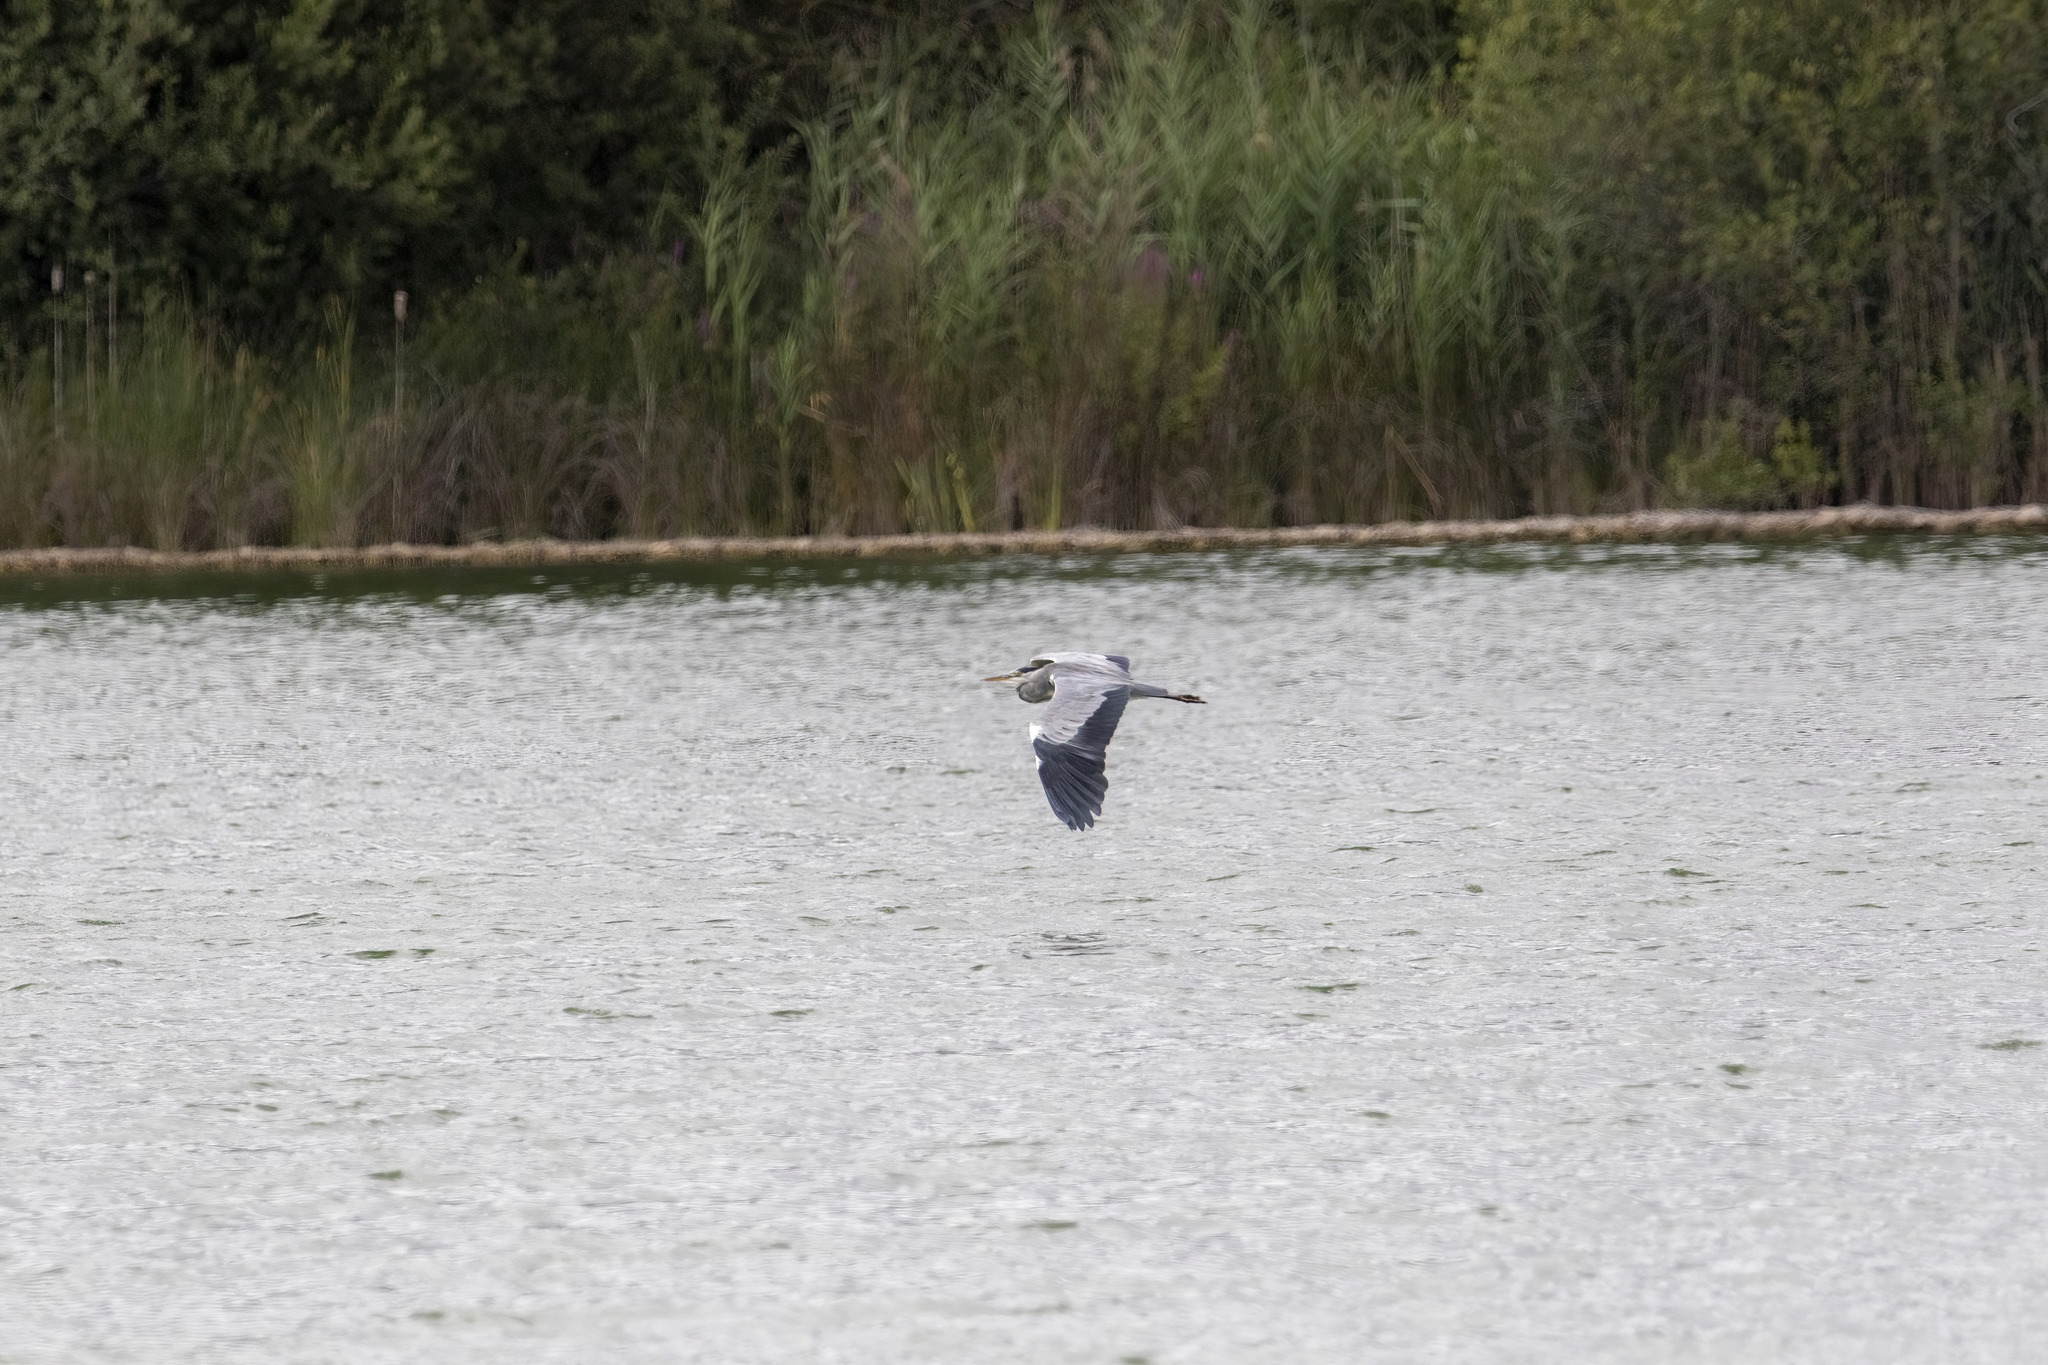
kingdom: Animalia
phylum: Chordata
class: Aves
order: Pelecaniformes
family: Ardeidae
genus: Ardea
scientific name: Ardea cinerea
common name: Grey heron
